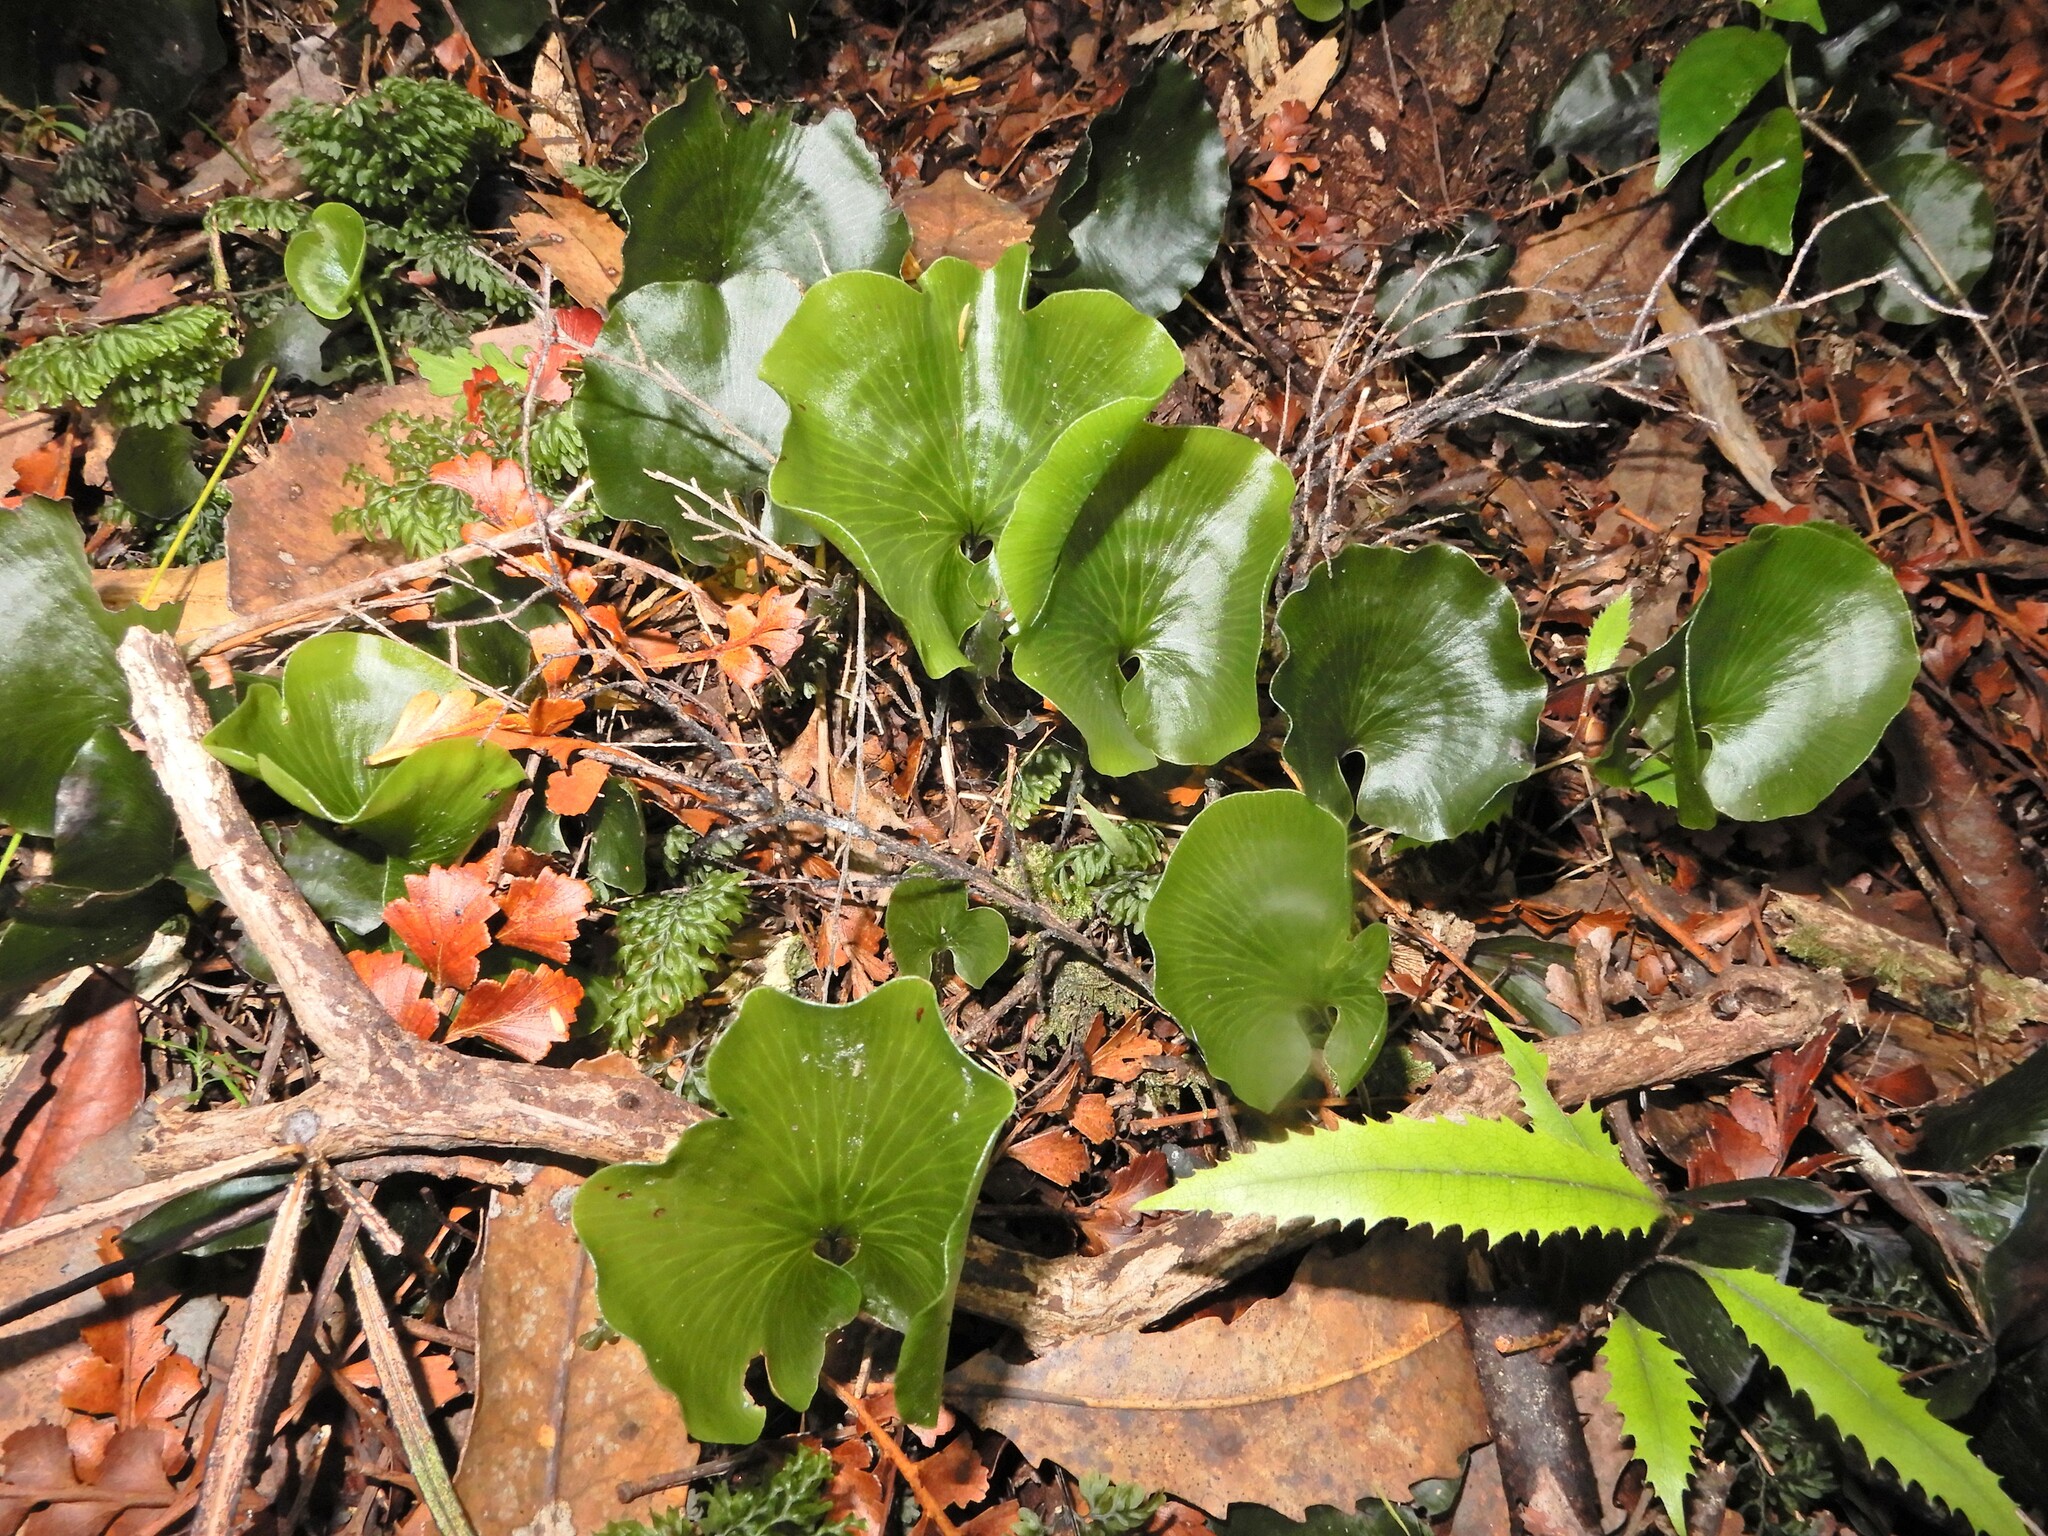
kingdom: Plantae
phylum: Tracheophyta
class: Polypodiopsida
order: Hymenophyllales
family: Hymenophyllaceae
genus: Hymenophyllum
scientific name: Hymenophyllum nephrophyllum
